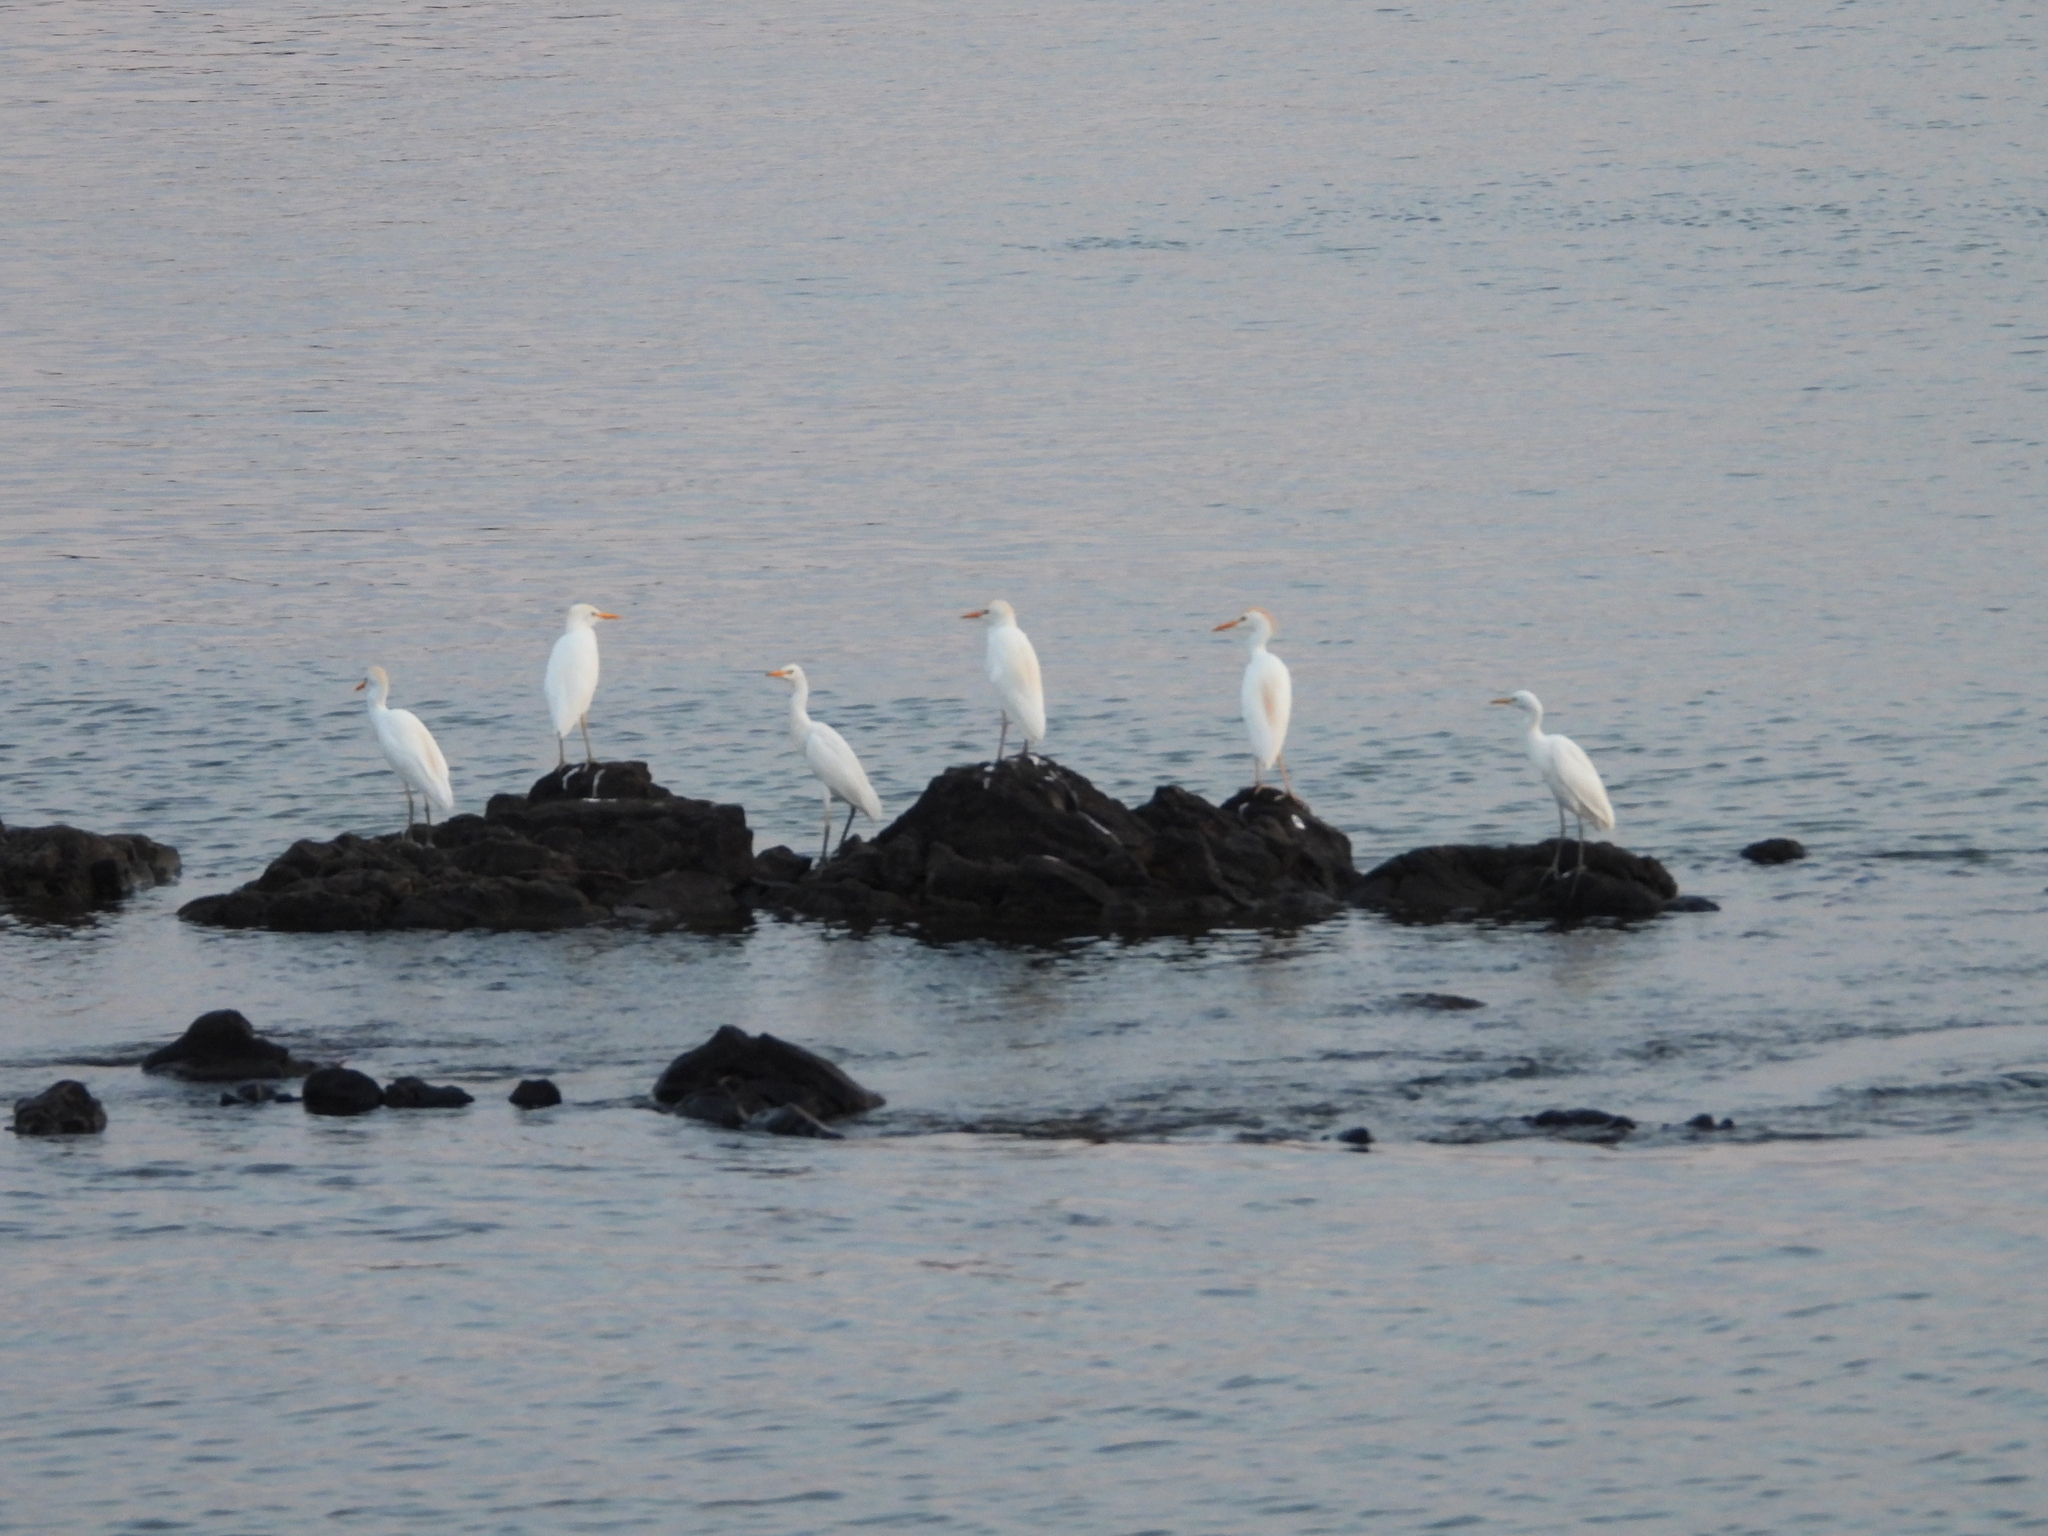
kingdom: Animalia
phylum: Chordata
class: Aves
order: Pelecaniformes
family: Ardeidae
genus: Bubulcus
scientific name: Bubulcus ibis
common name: Cattle egret
